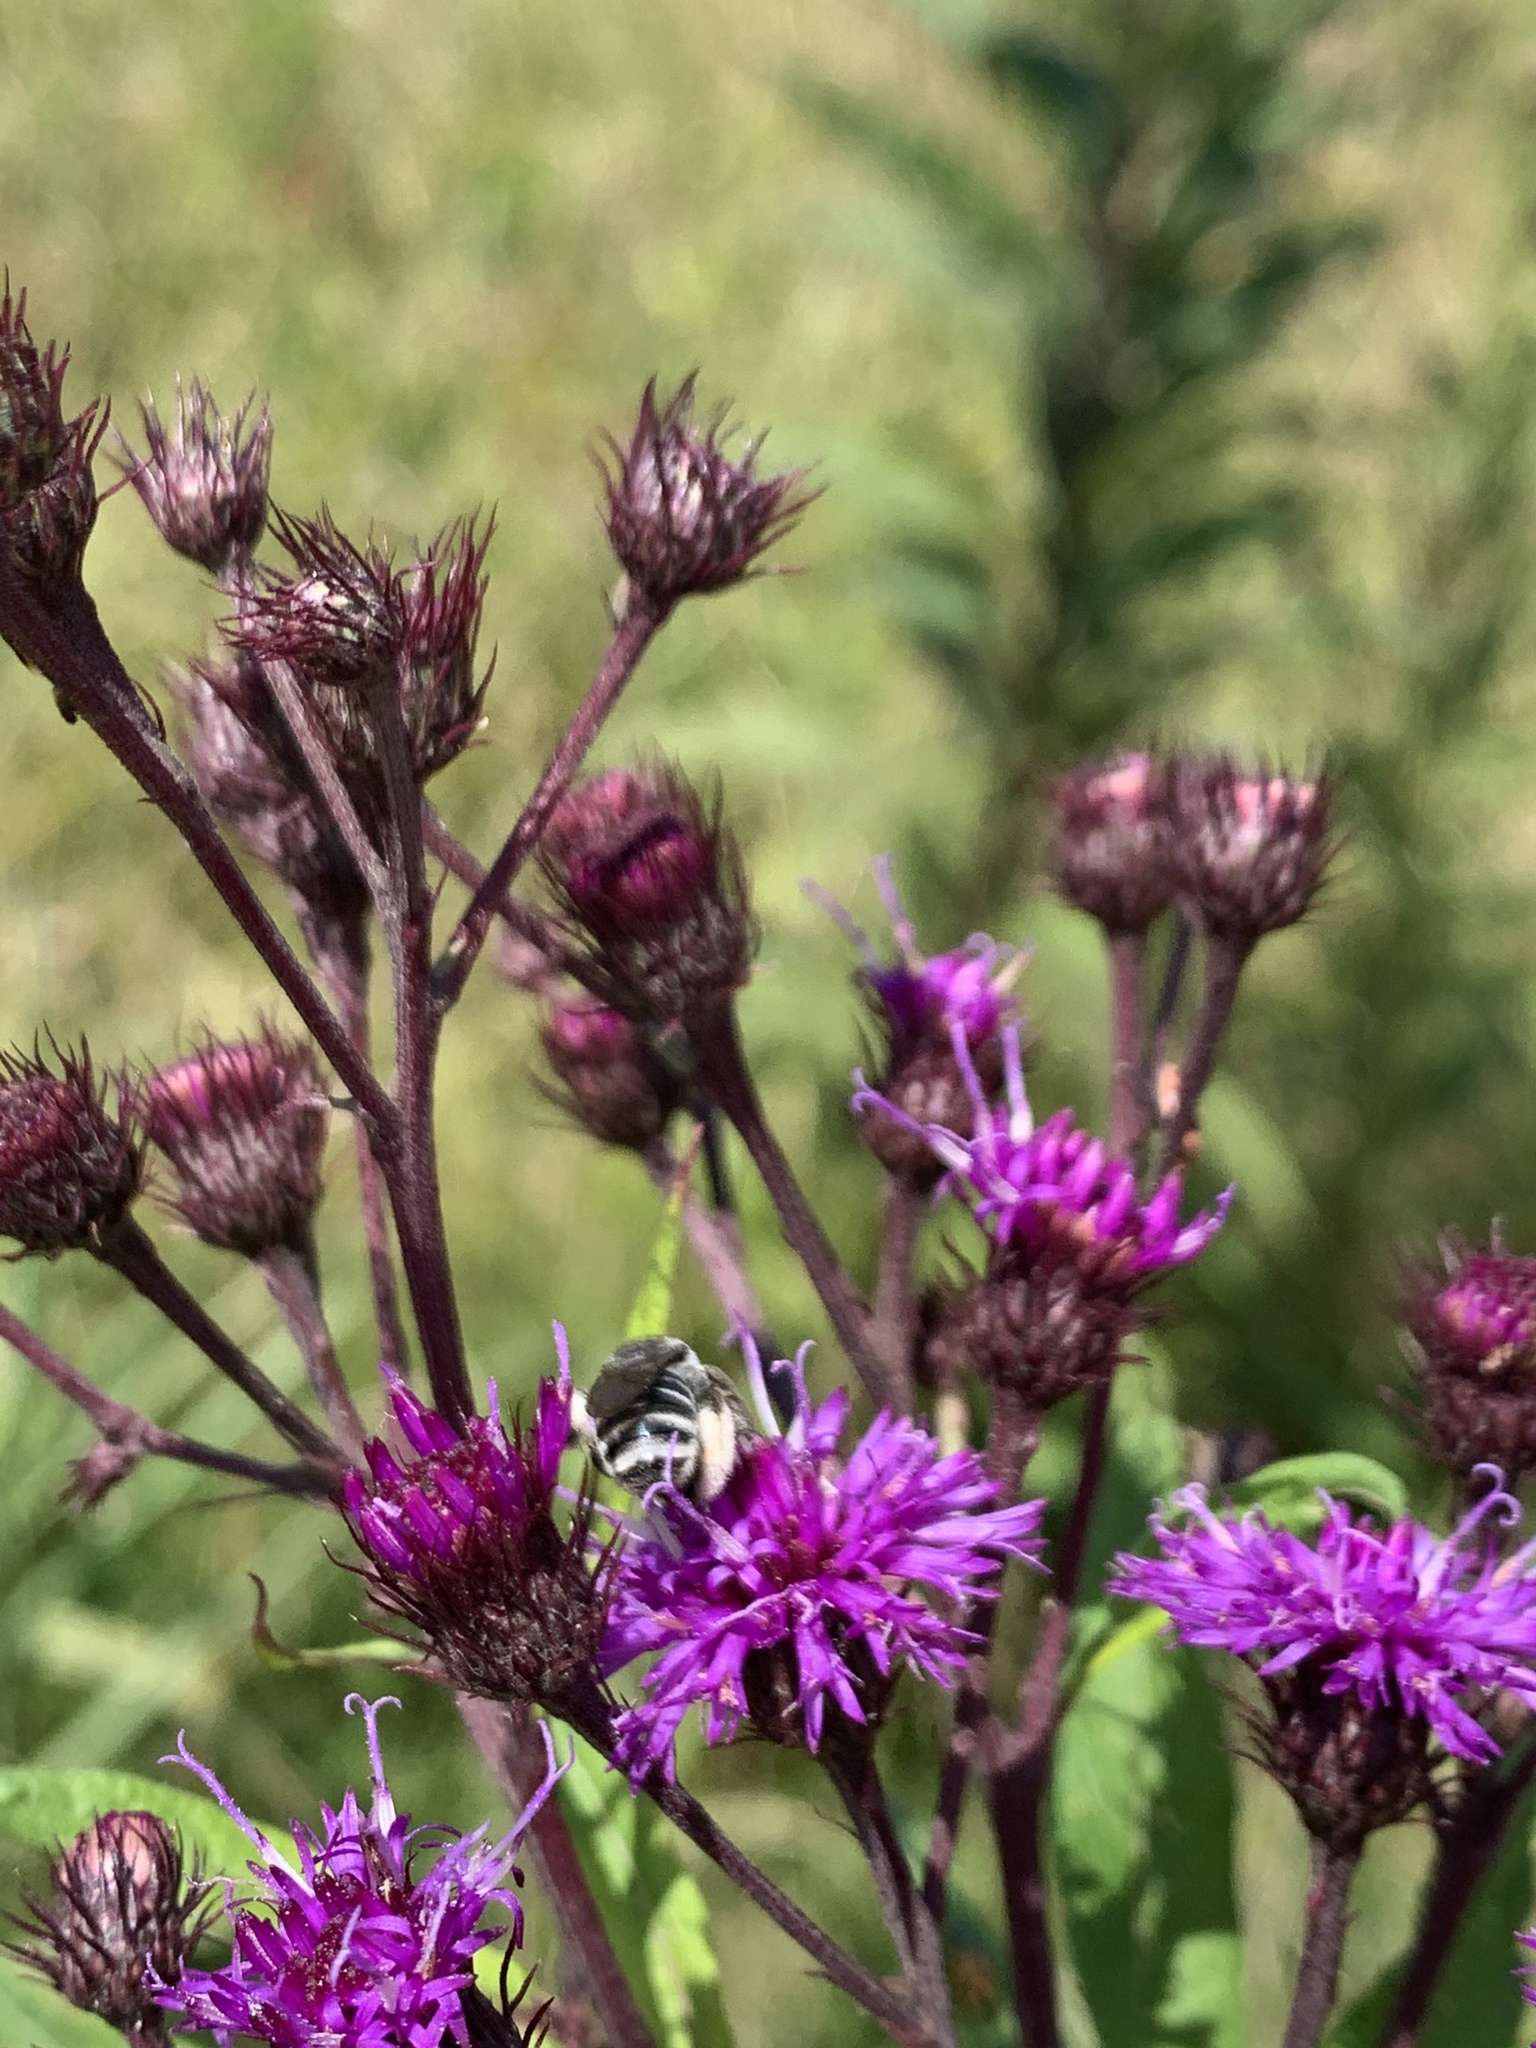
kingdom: Animalia
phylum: Arthropoda
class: Insecta
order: Hymenoptera
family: Apidae
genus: Melissodes
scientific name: Melissodes denticulatus
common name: Denticulate long-horned bee
